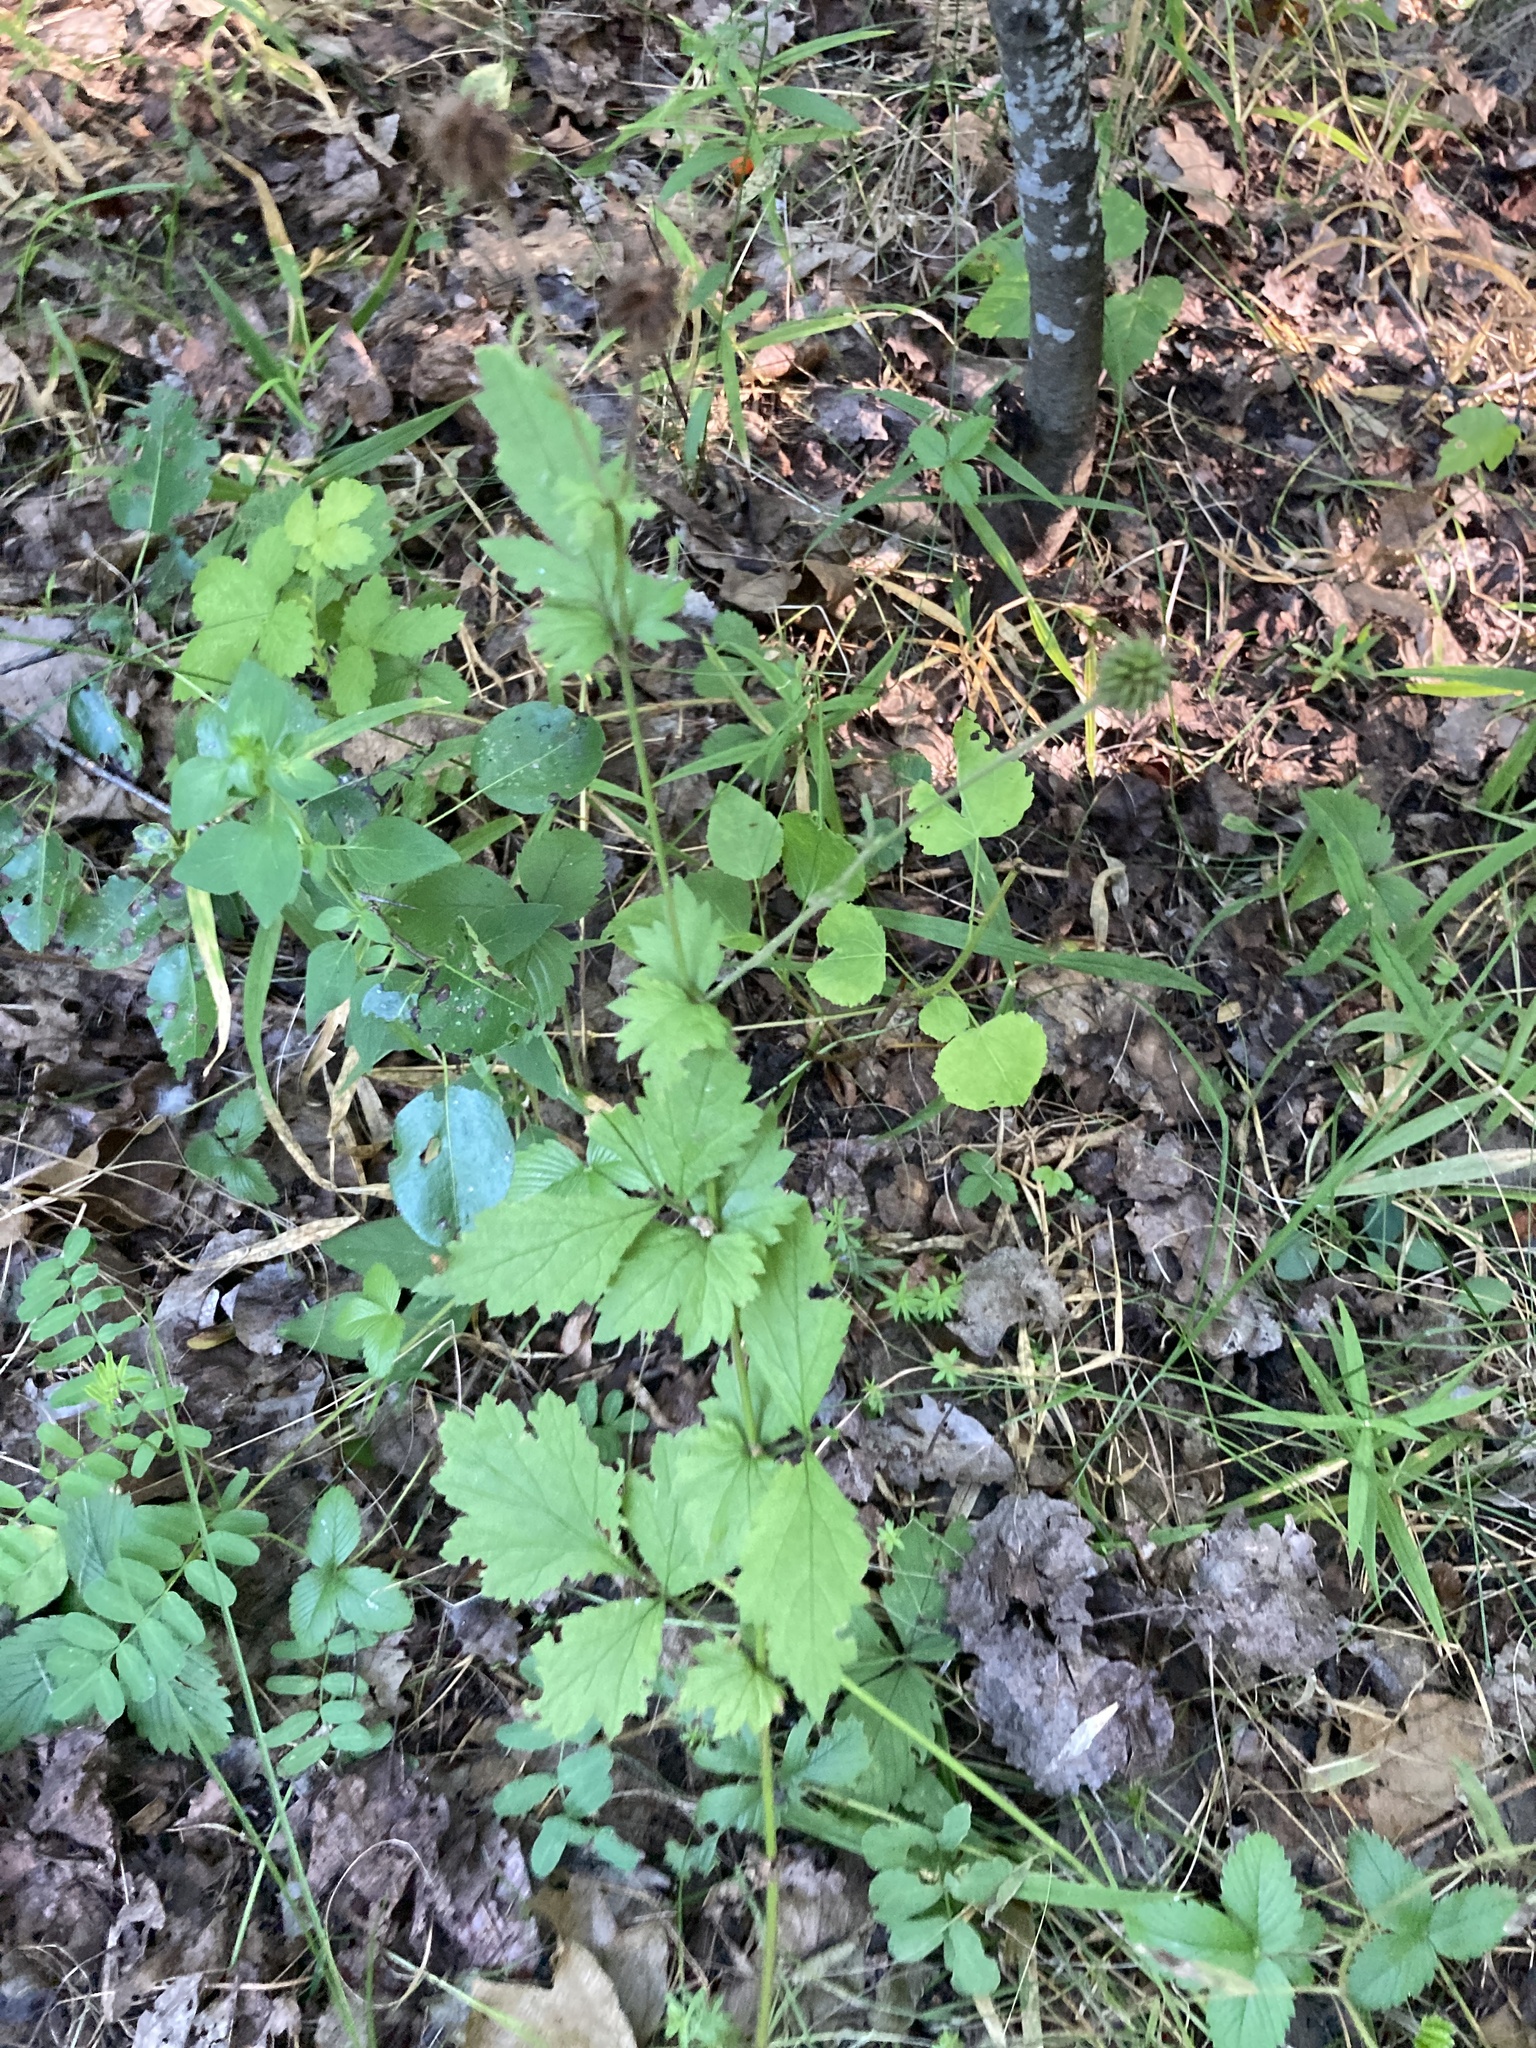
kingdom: Plantae
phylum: Tracheophyta
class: Magnoliopsida
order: Rosales
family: Rosaceae
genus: Geum
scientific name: Geum urbanum
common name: Wood avens
